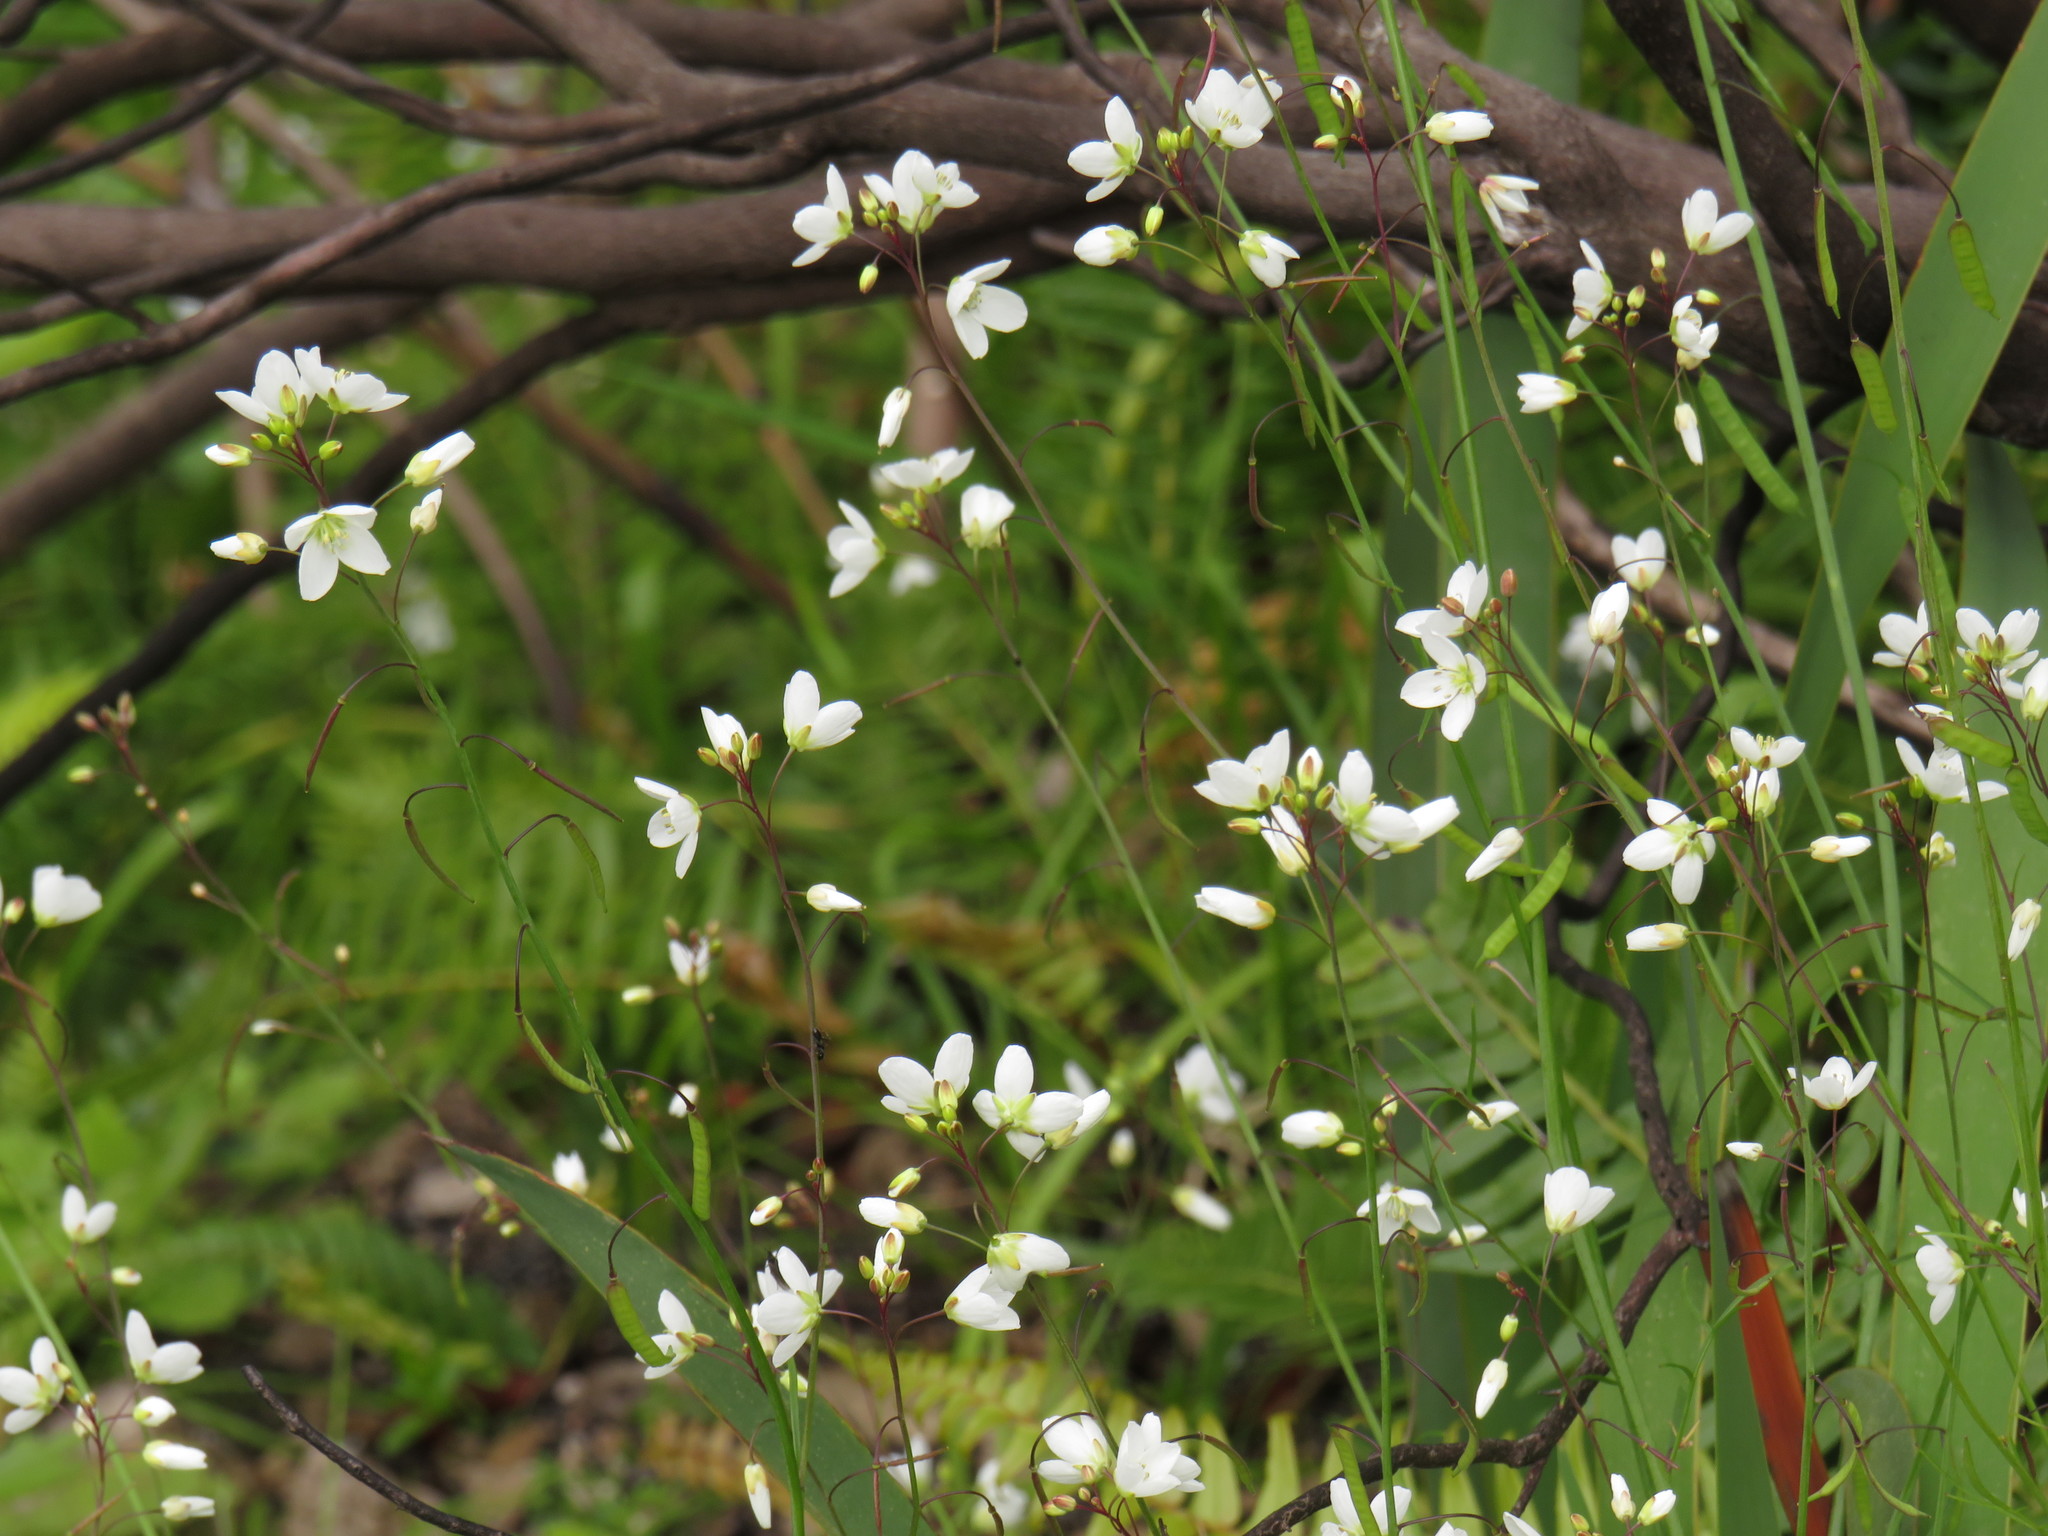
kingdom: Plantae
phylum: Tracheophyta
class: Magnoliopsida
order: Brassicales
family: Brassicaceae
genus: Heliophila
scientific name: Heliophila meyeri
